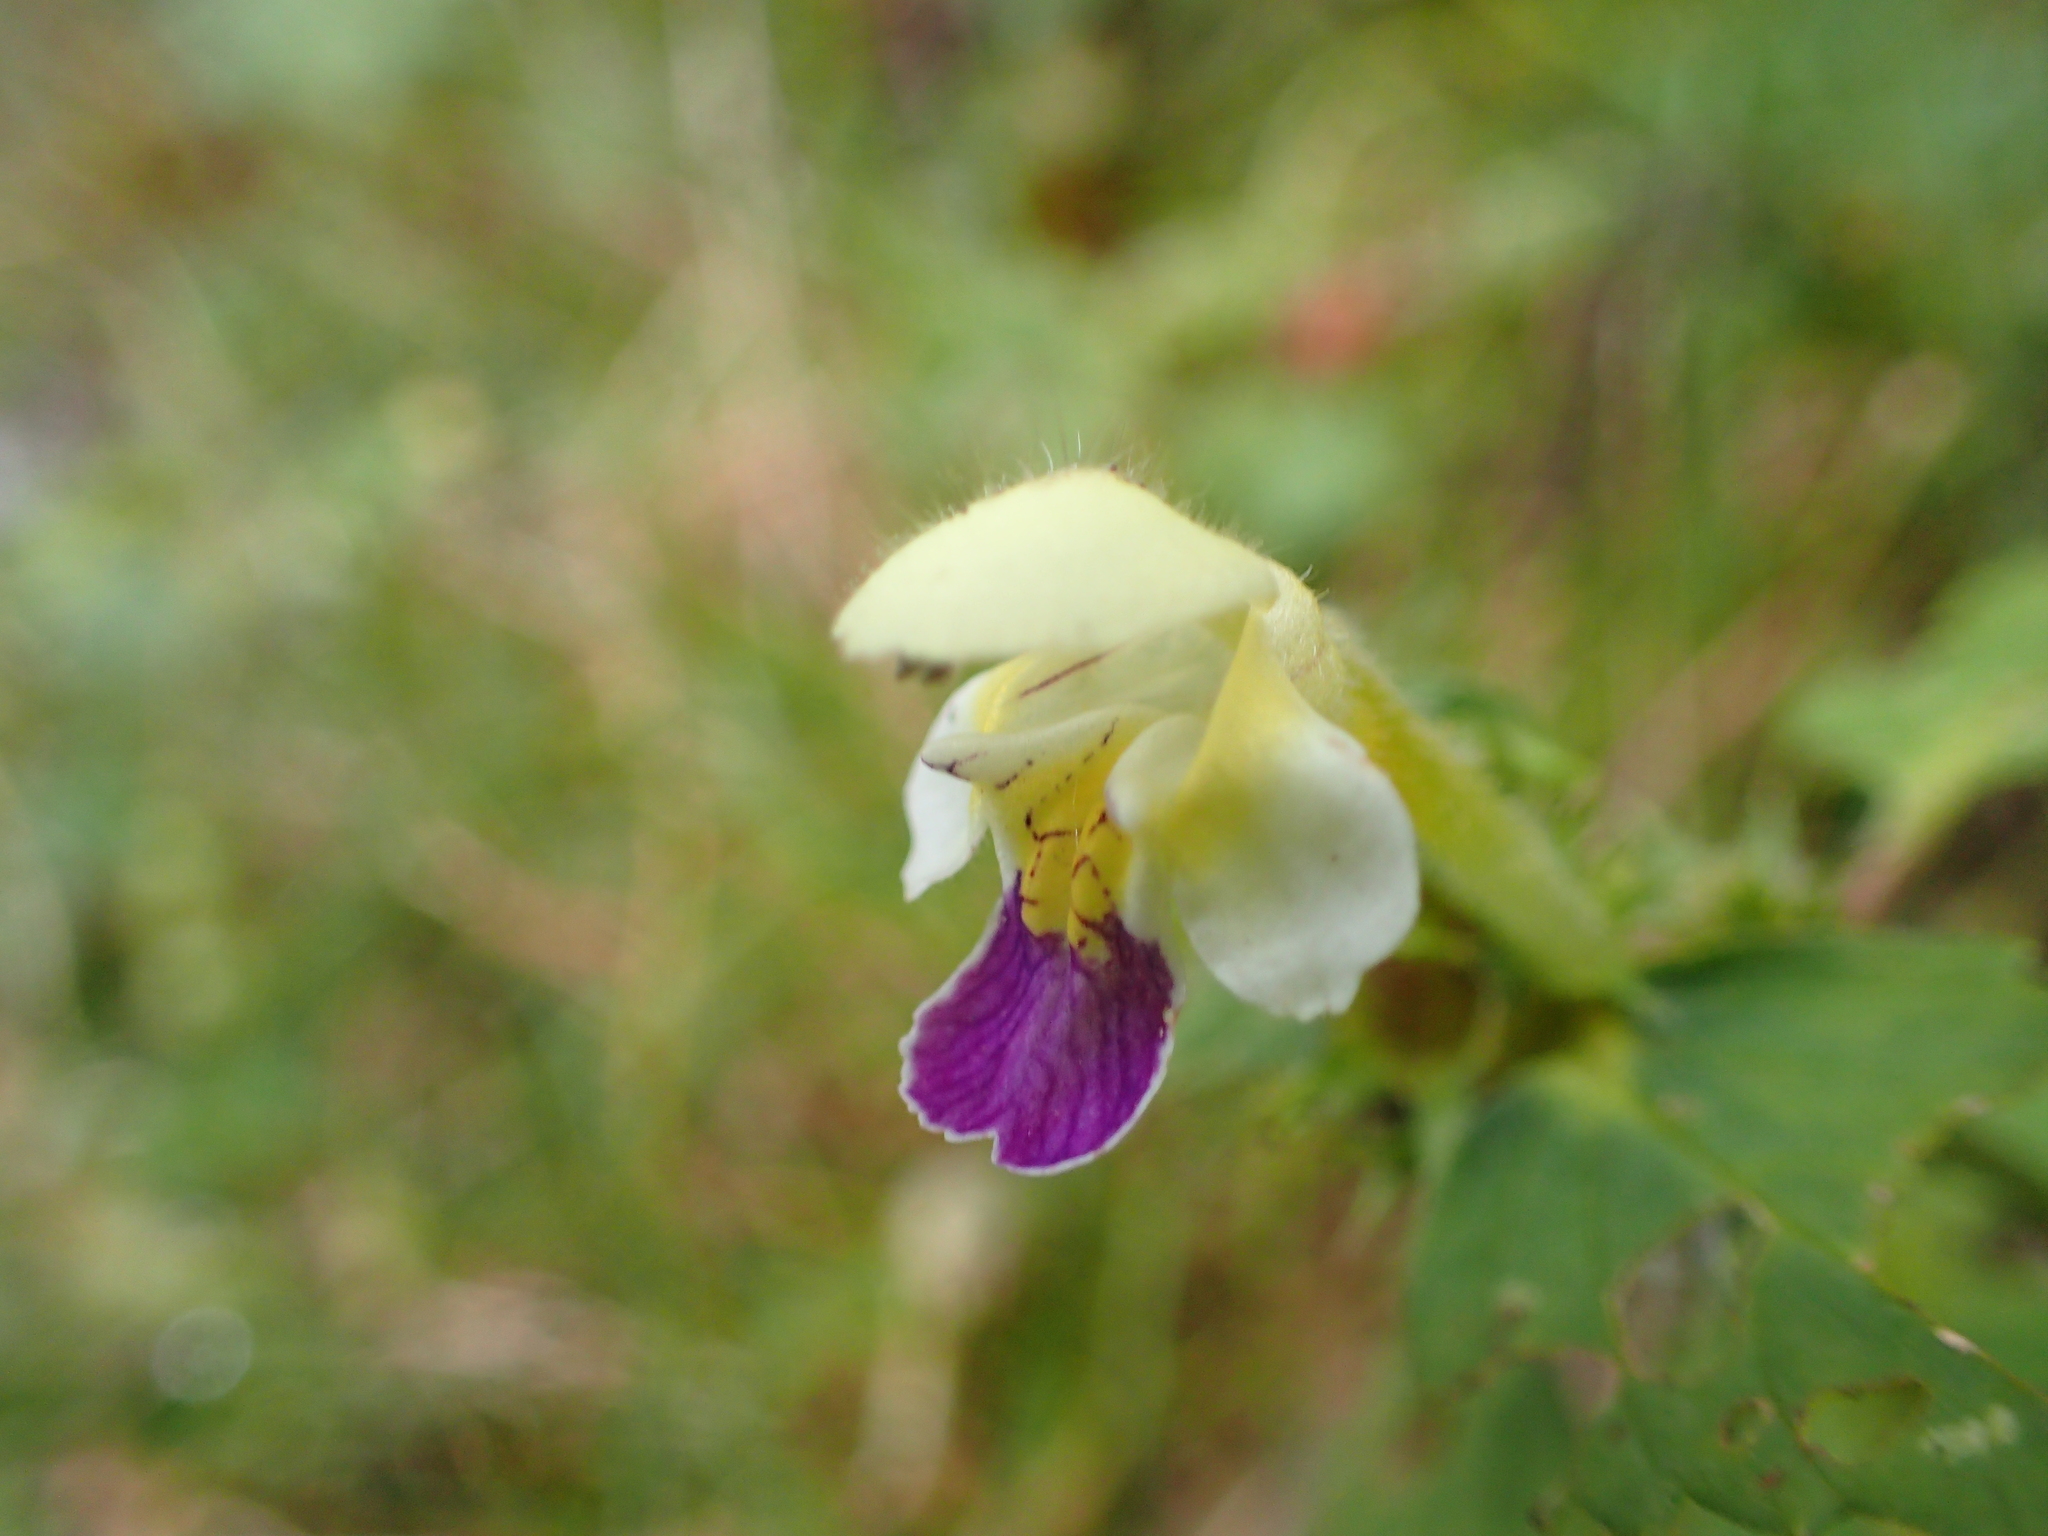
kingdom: Plantae
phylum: Tracheophyta
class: Magnoliopsida
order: Lamiales
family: Lamiaceae
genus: Galeopsis
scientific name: Galeopsis speciosa
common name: Large-flowered hemp-nettle
